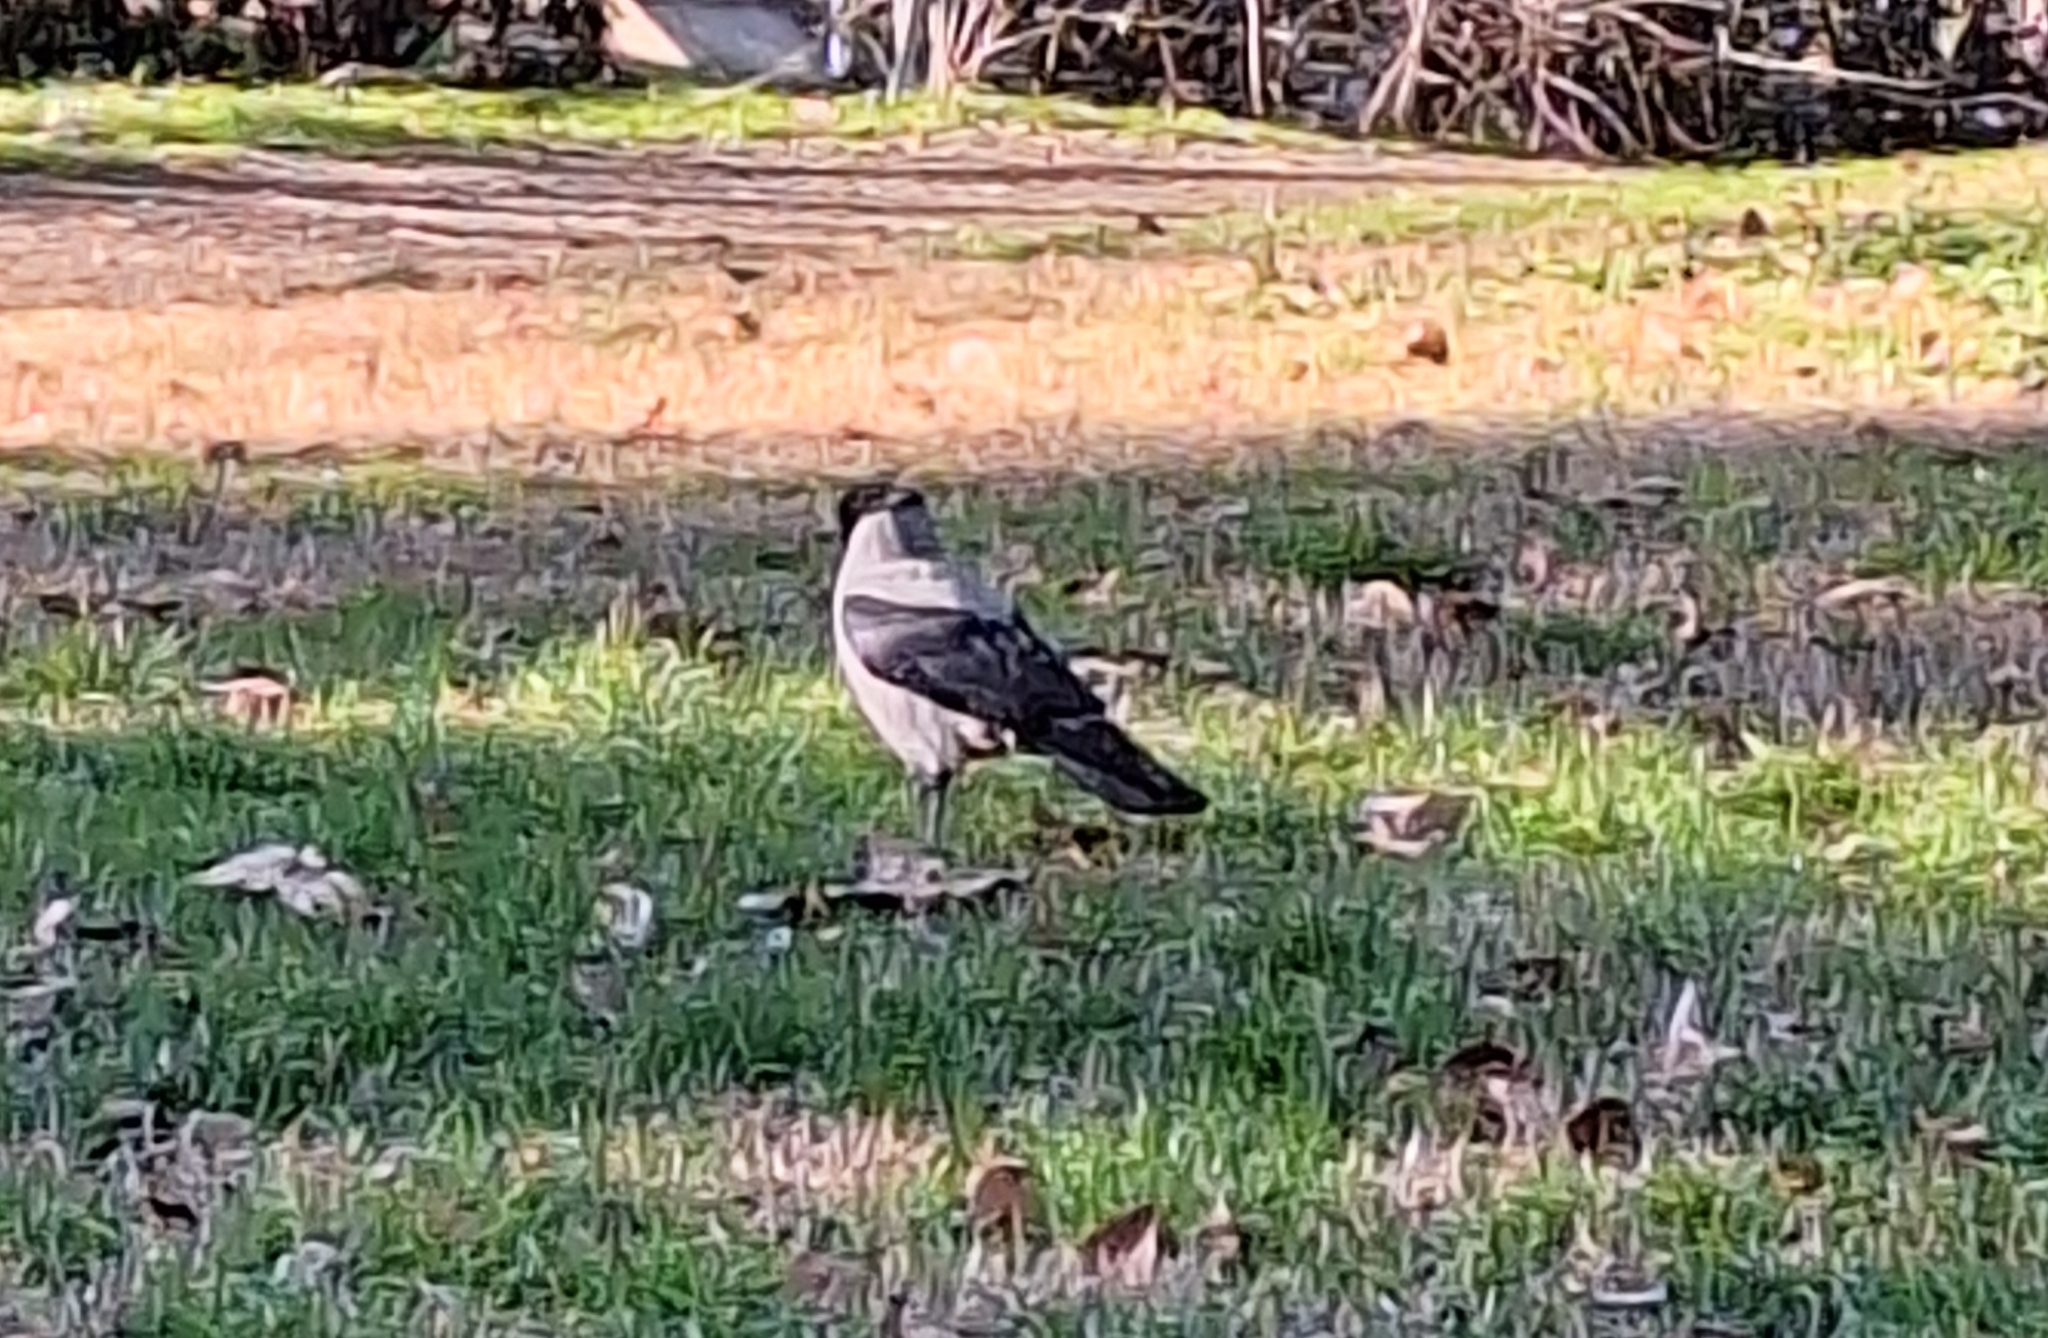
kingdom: Animalia
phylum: Chordata
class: Aves
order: Passeriformes
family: Corvidae
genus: Corvus
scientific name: Corvus cornix
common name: Hooded crow
